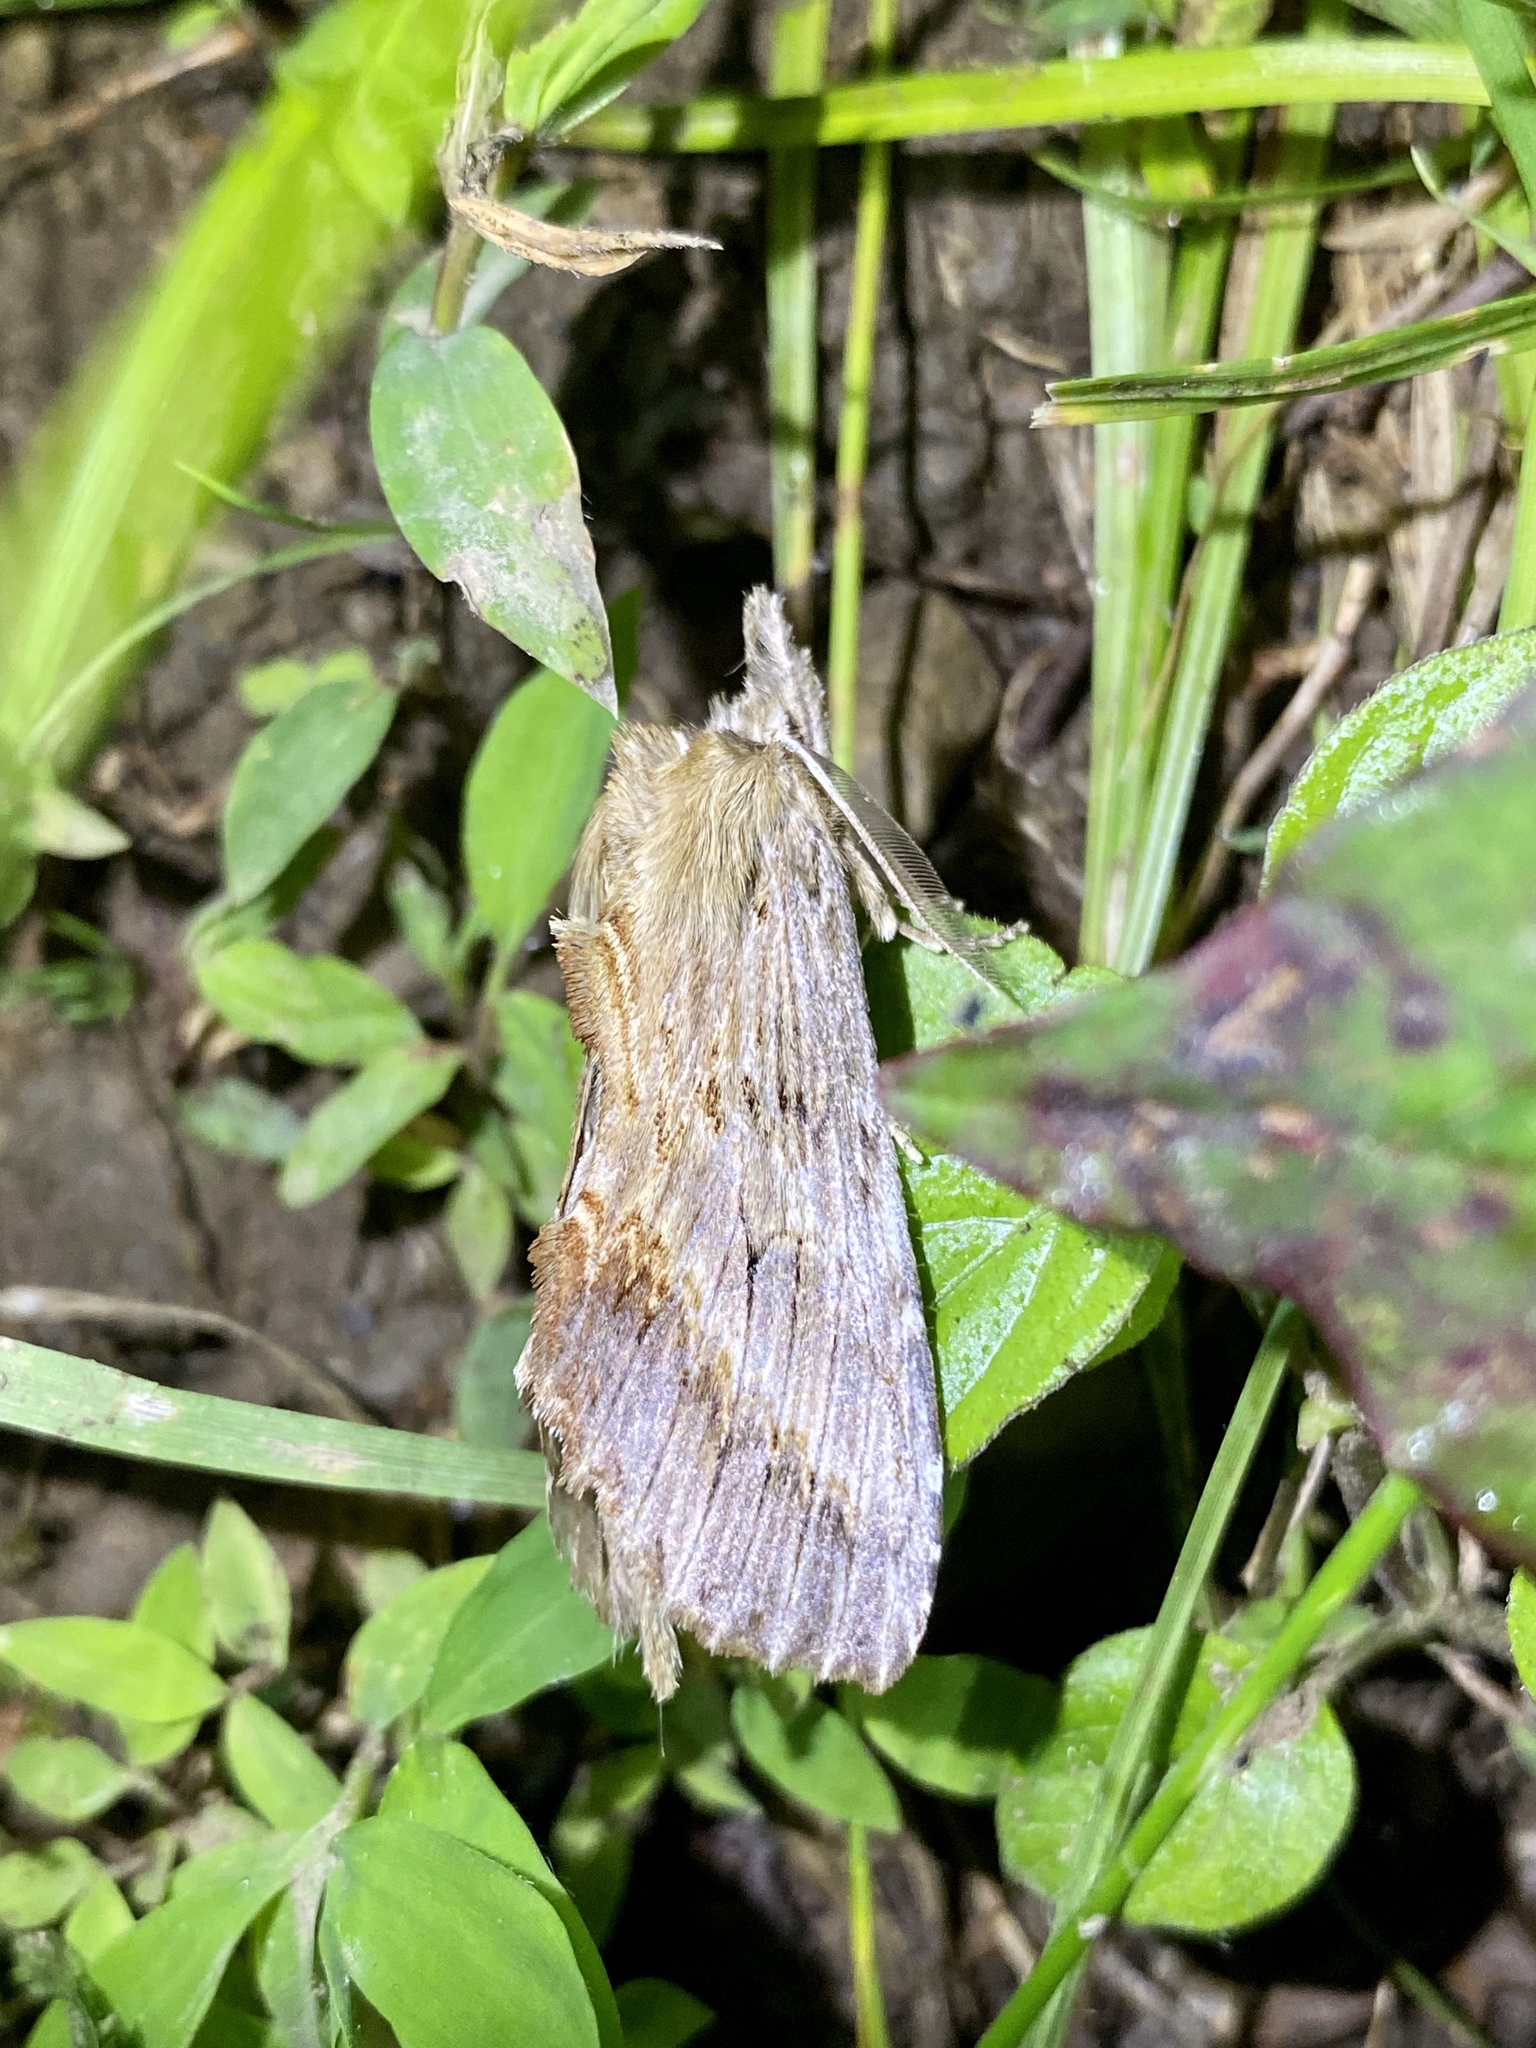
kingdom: Animalia
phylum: Arthropoda
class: Insecta
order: Lepidoptera
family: Notodontidae
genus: Pterostoma
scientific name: Pterostoma gigantina
